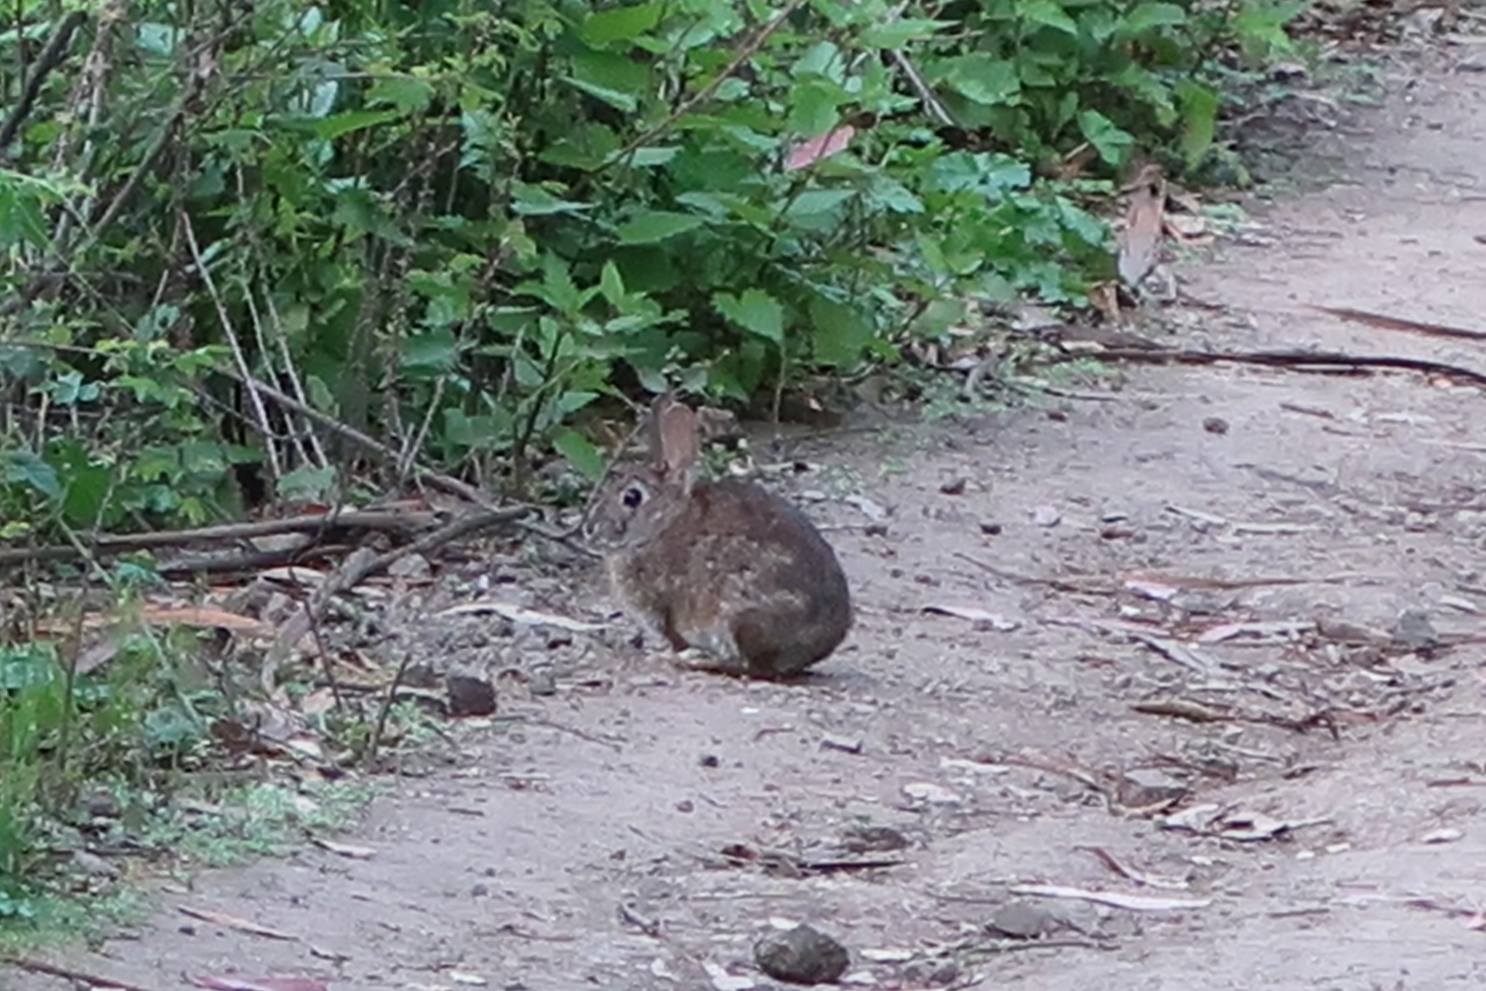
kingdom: Animalia
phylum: Chordata
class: Mammalia
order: Lagomorpha
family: Leporidae
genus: Sylvilagus
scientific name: Sylvilagus bachmani
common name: Brush rabbit
